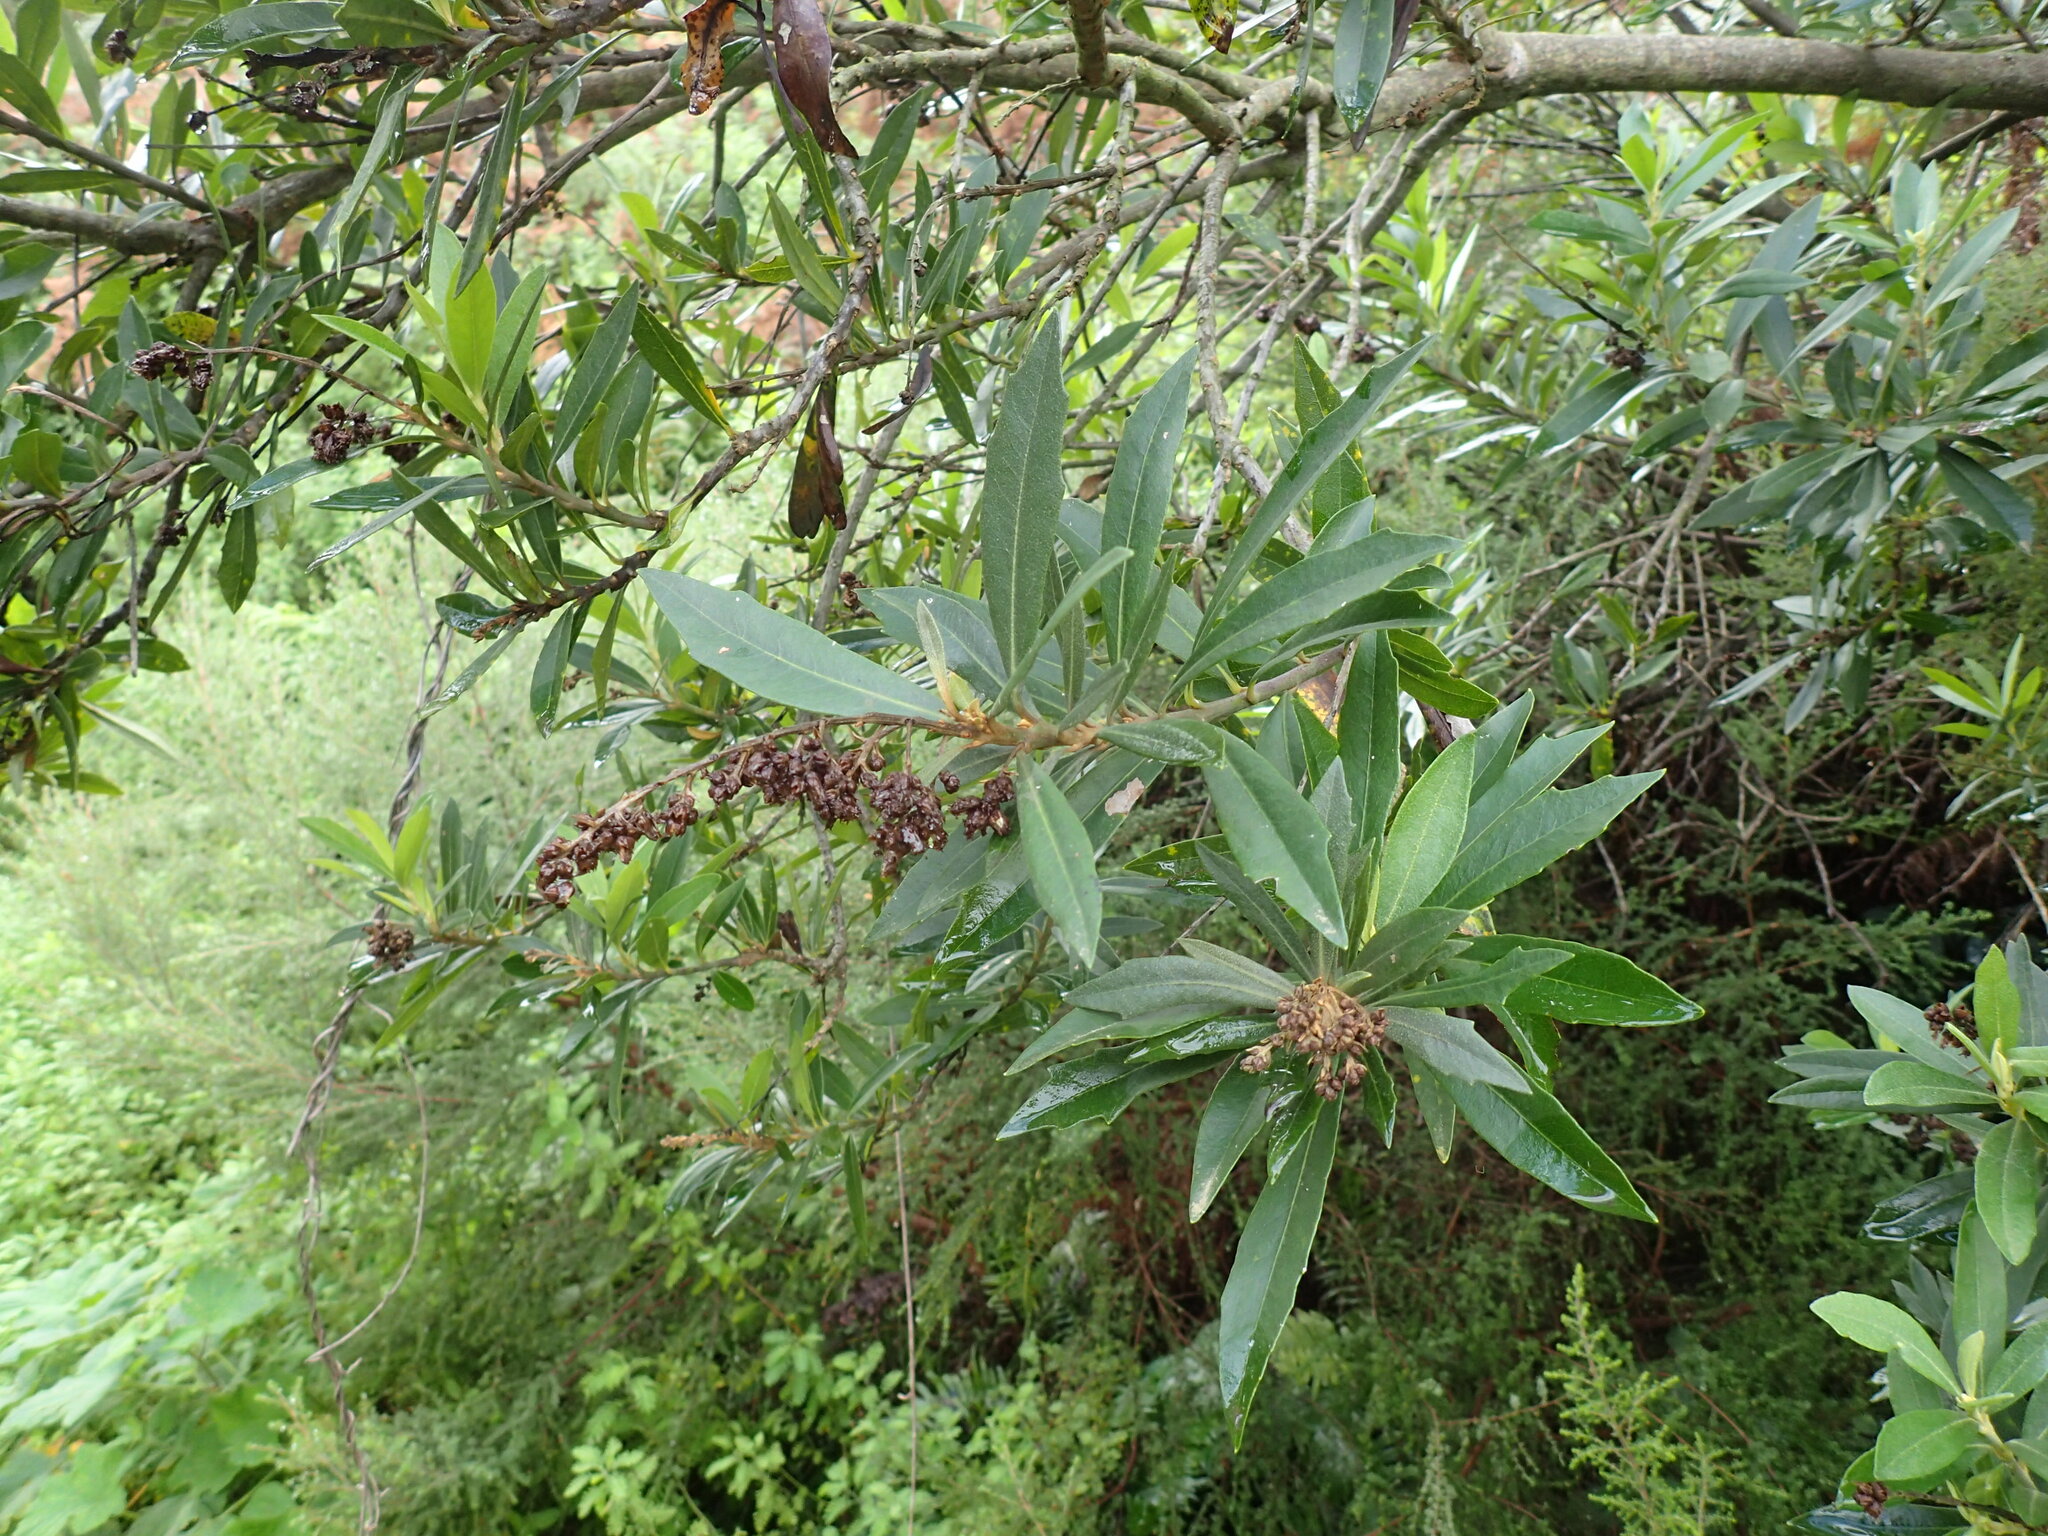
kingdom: Plantae
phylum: Tracheophyta
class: Magnoliopsida
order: Asterales
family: Asteraceae
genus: Brachylaena
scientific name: Brachylaena neriifolia
